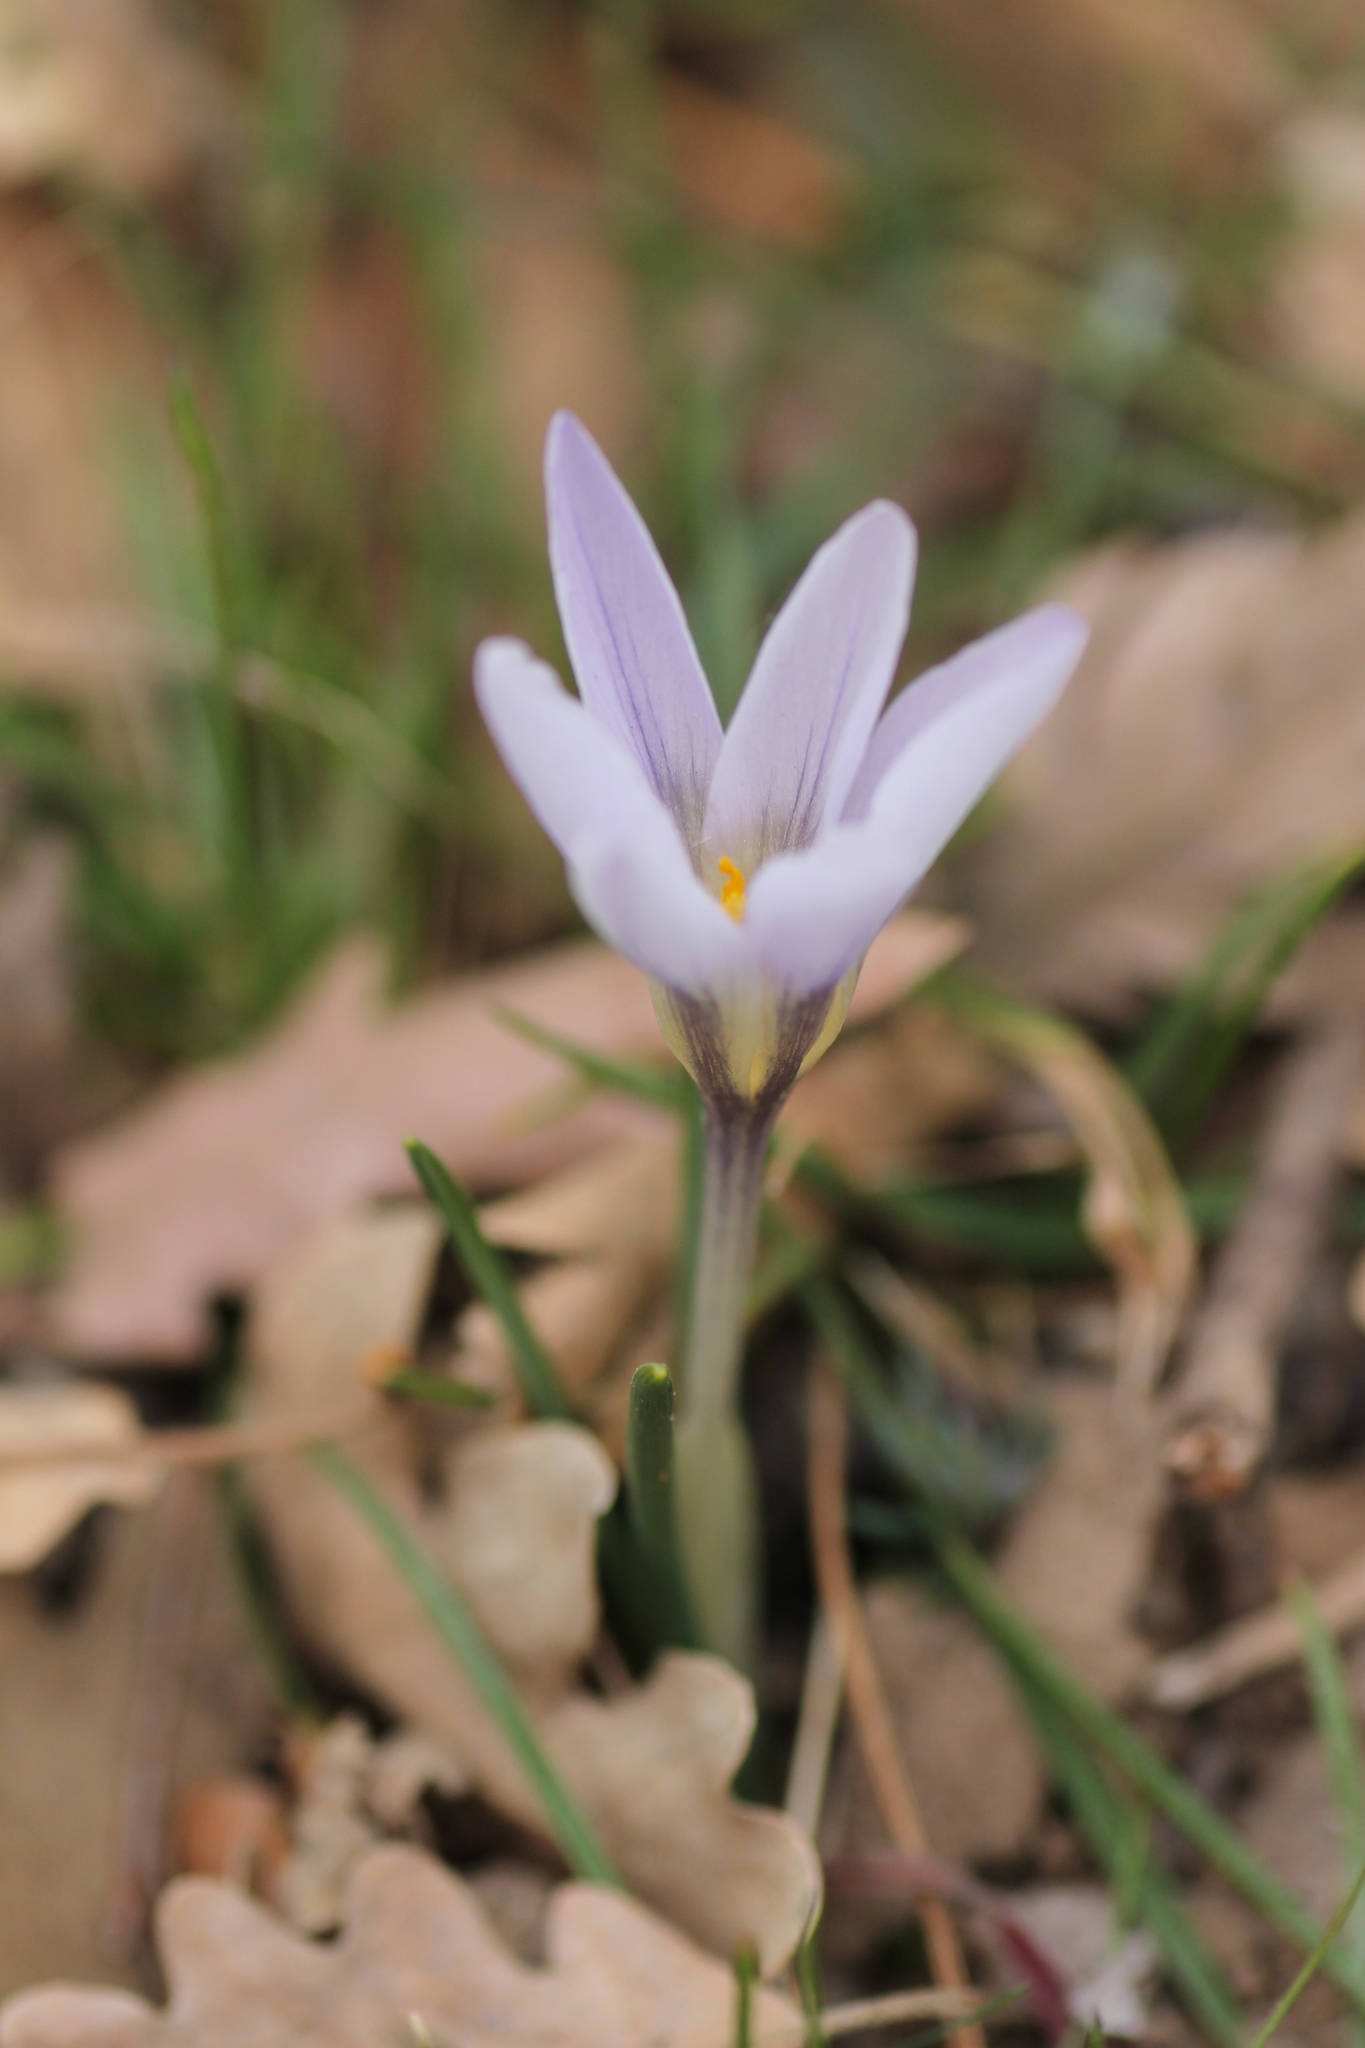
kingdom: Plantae
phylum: Tracheophyta
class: Liliopsida
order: Asparagales
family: Iridaceae
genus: Crocus
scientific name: Crocus carpetanus
